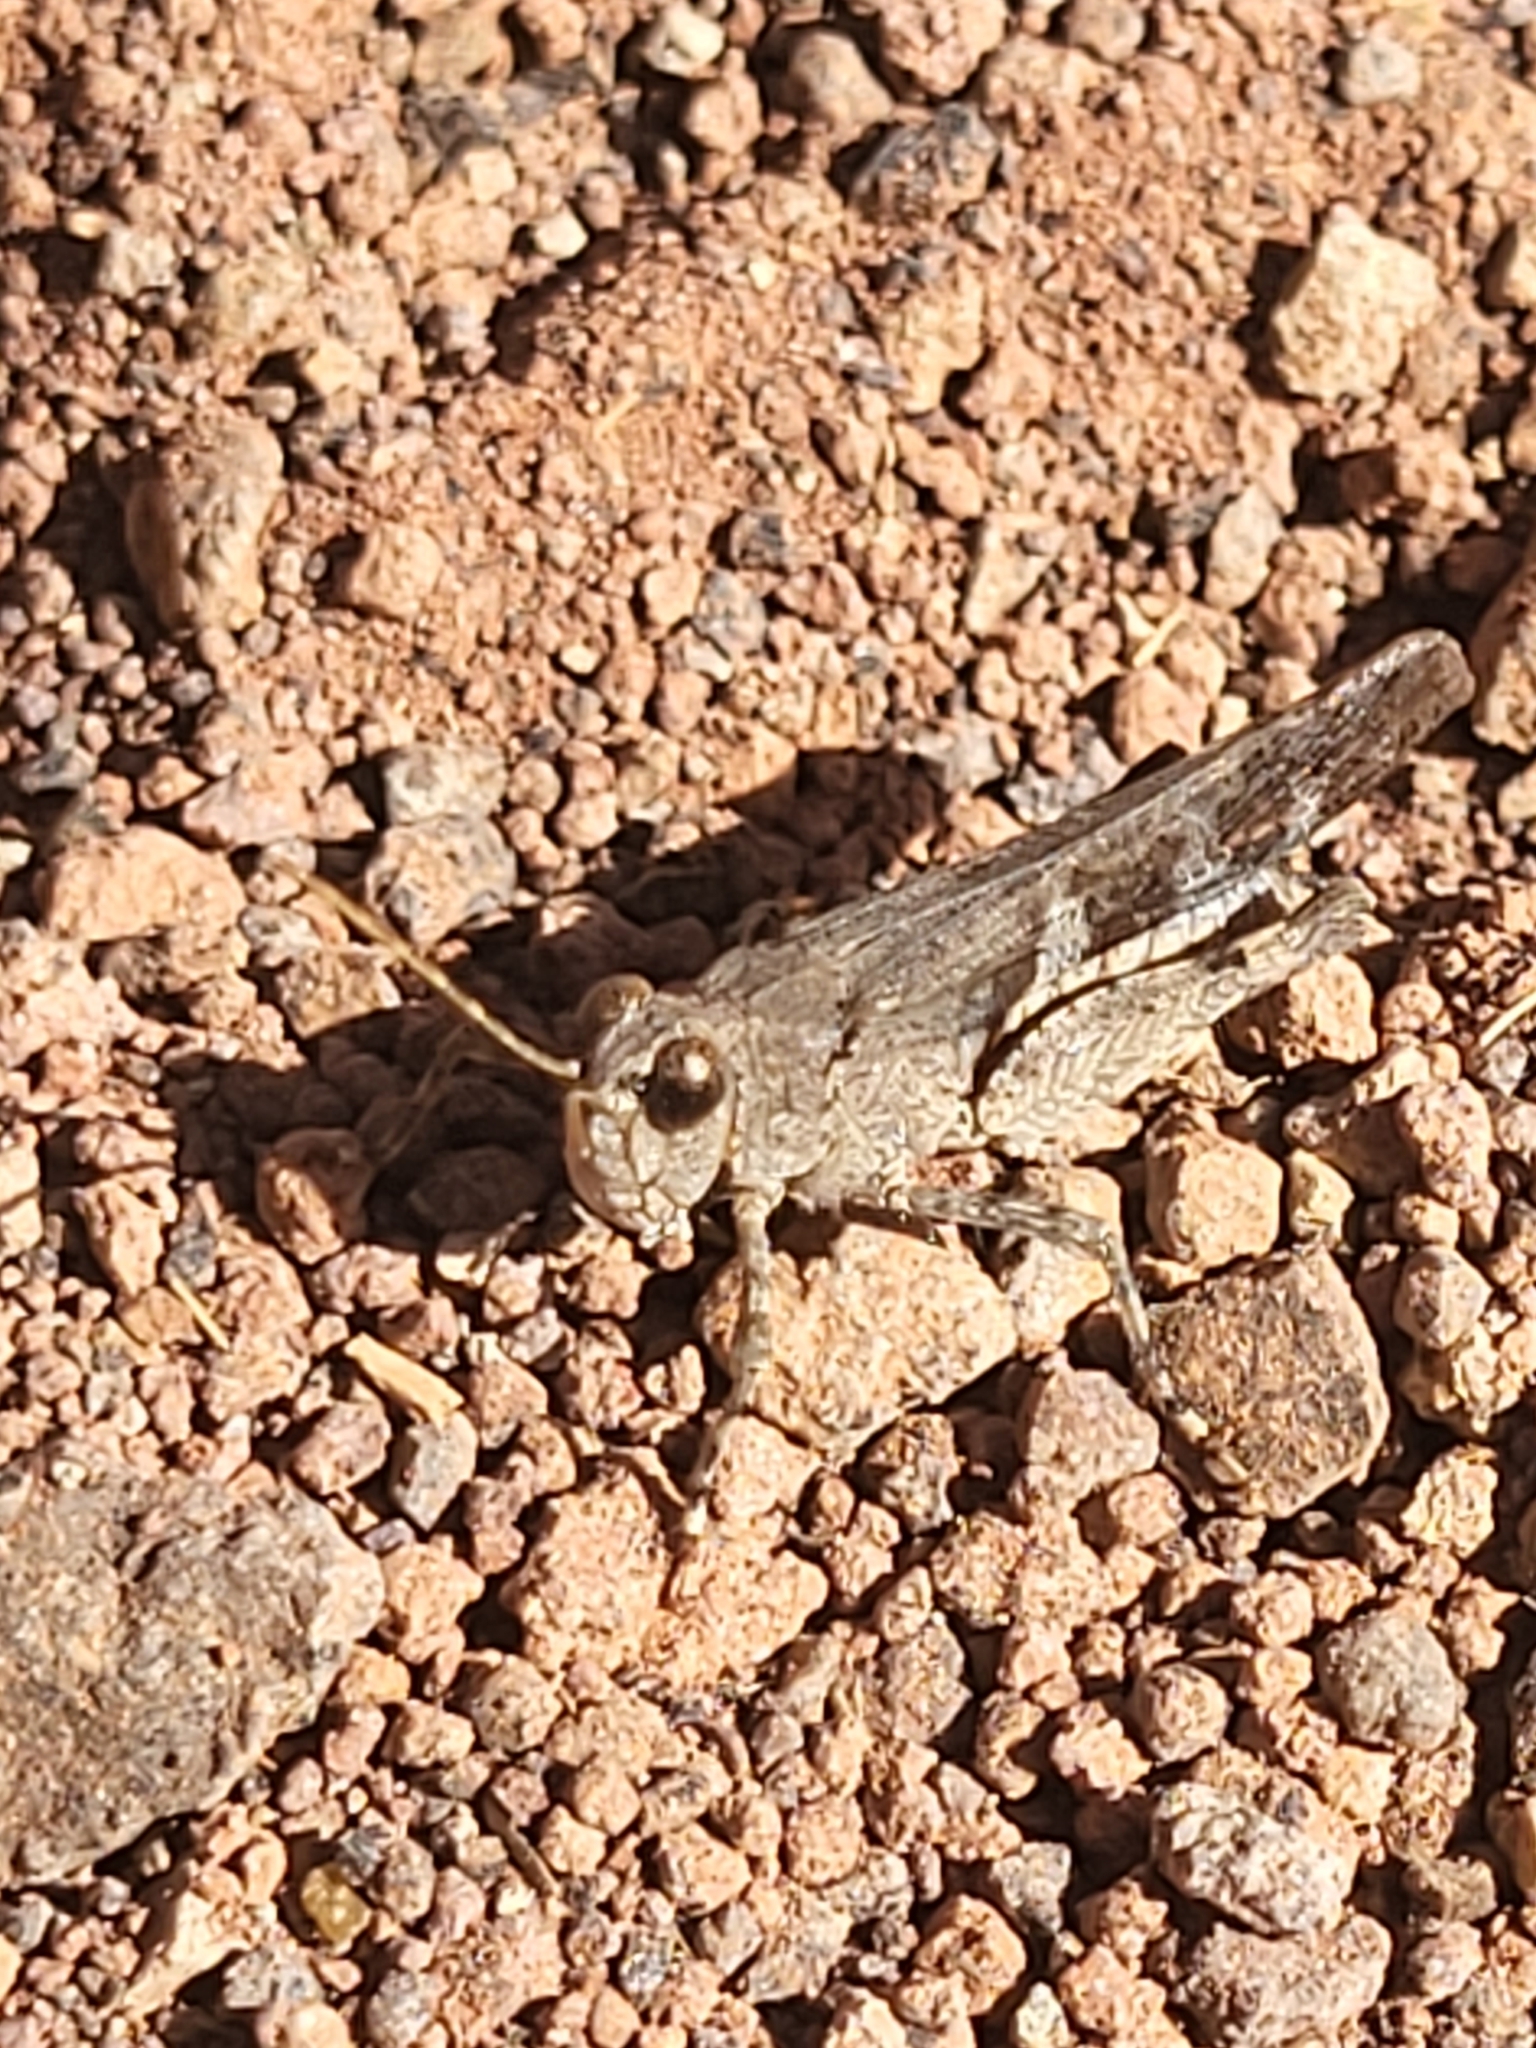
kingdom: Animalia
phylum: Arthropoda
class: Insecta
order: Orthoptera
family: Acrididae
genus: Aiolopus
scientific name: Aiolopus simulatrix
